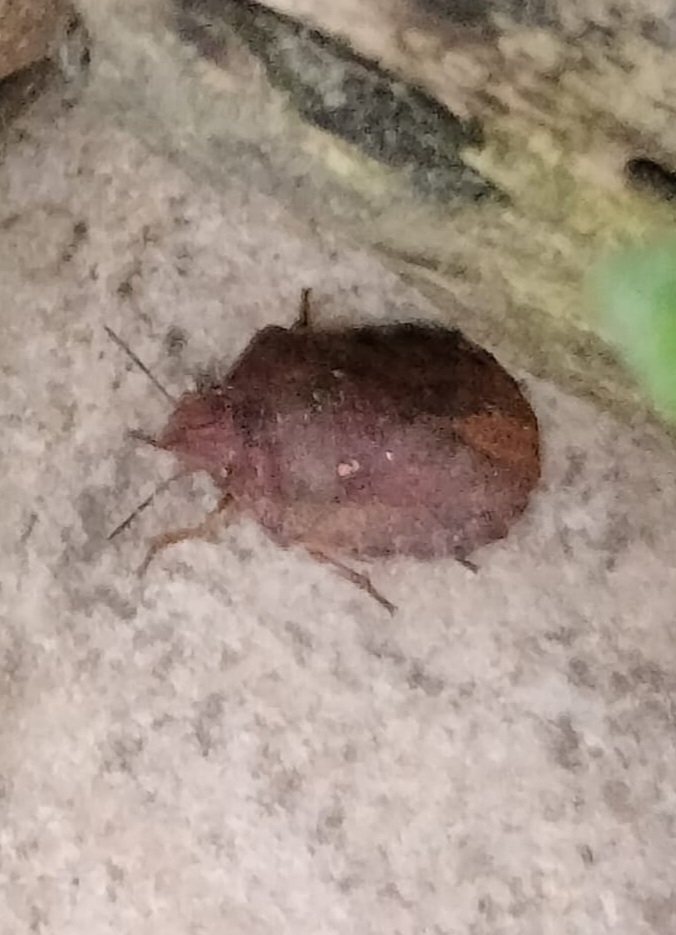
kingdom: Animalia
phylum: Arthropoda
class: Insecta
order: Hemiptera
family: Scutelleridae
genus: Eurygaster
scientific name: Eurygaster testudinaria
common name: Tortoise bug
